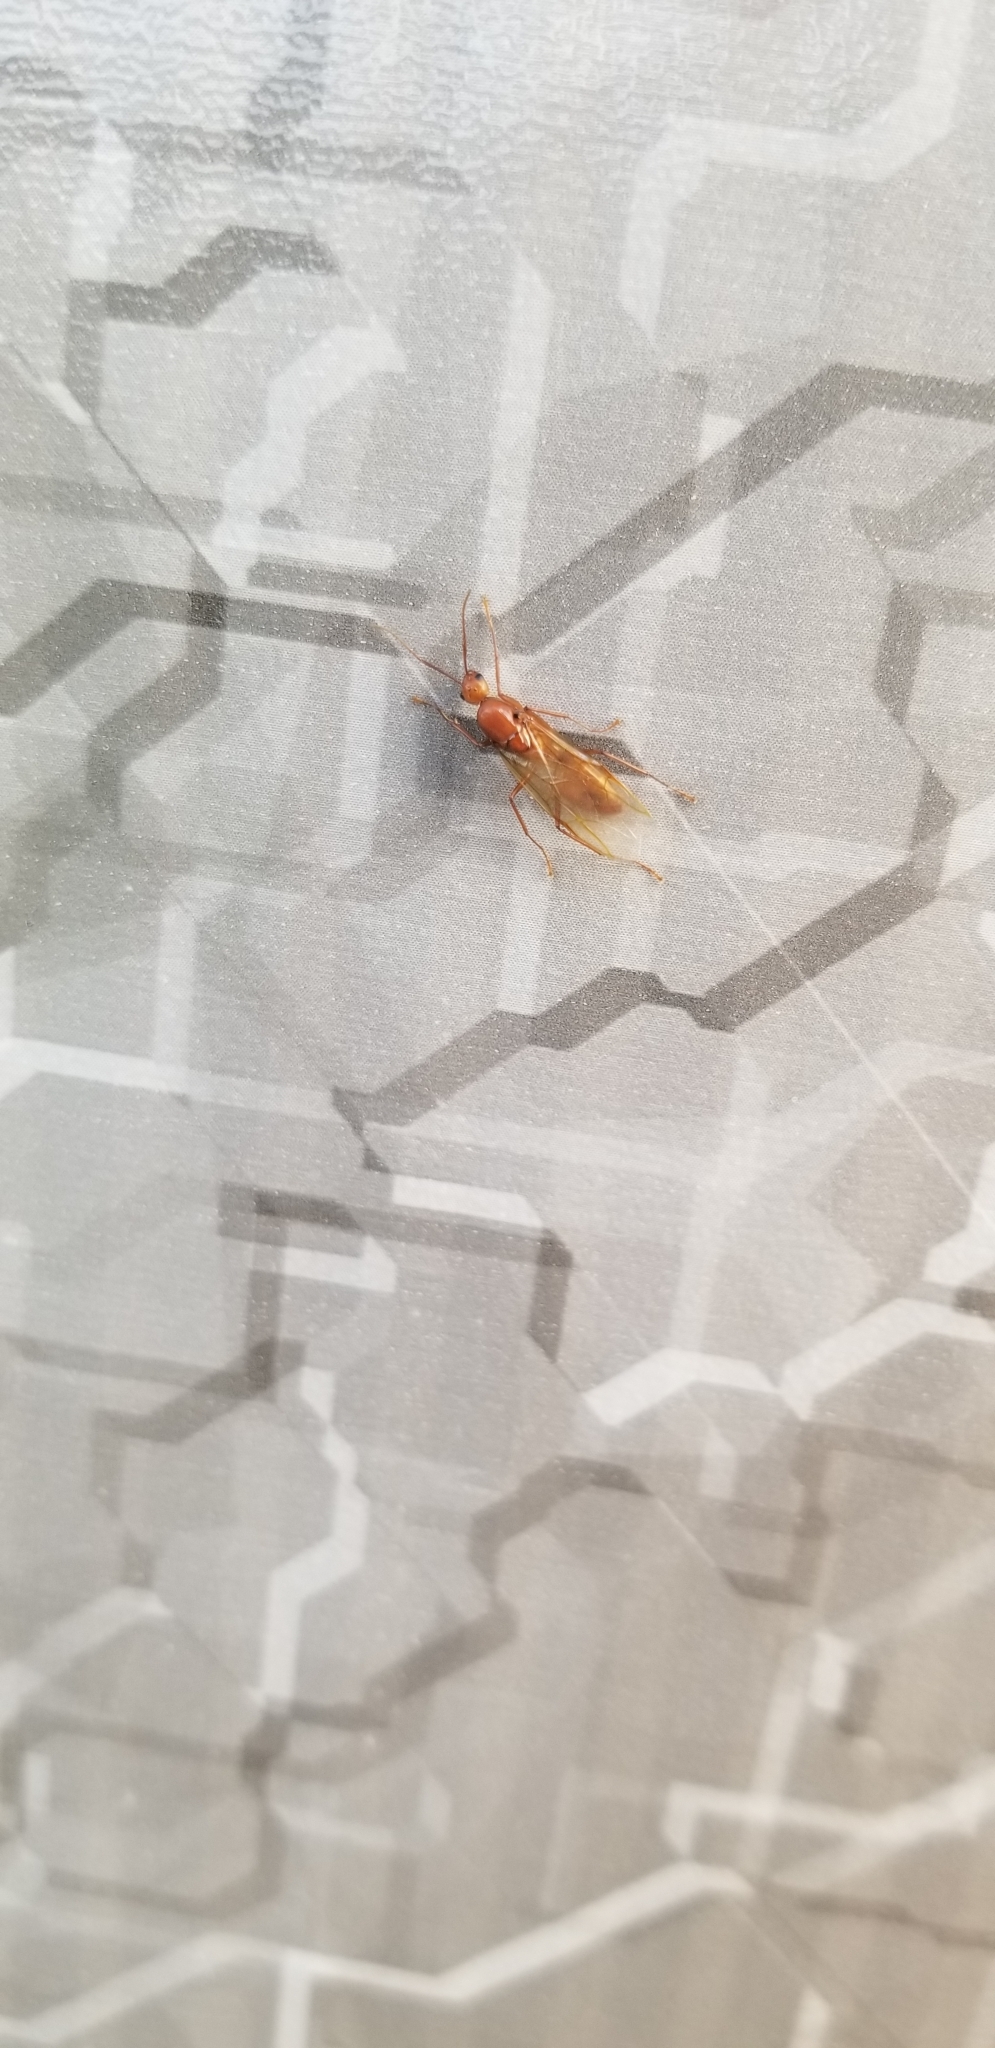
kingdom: Animalia
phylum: Arthropoda
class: Insecta
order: Hymenoptera
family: Formicidae
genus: Camponotus
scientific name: Camponotus castaneus
